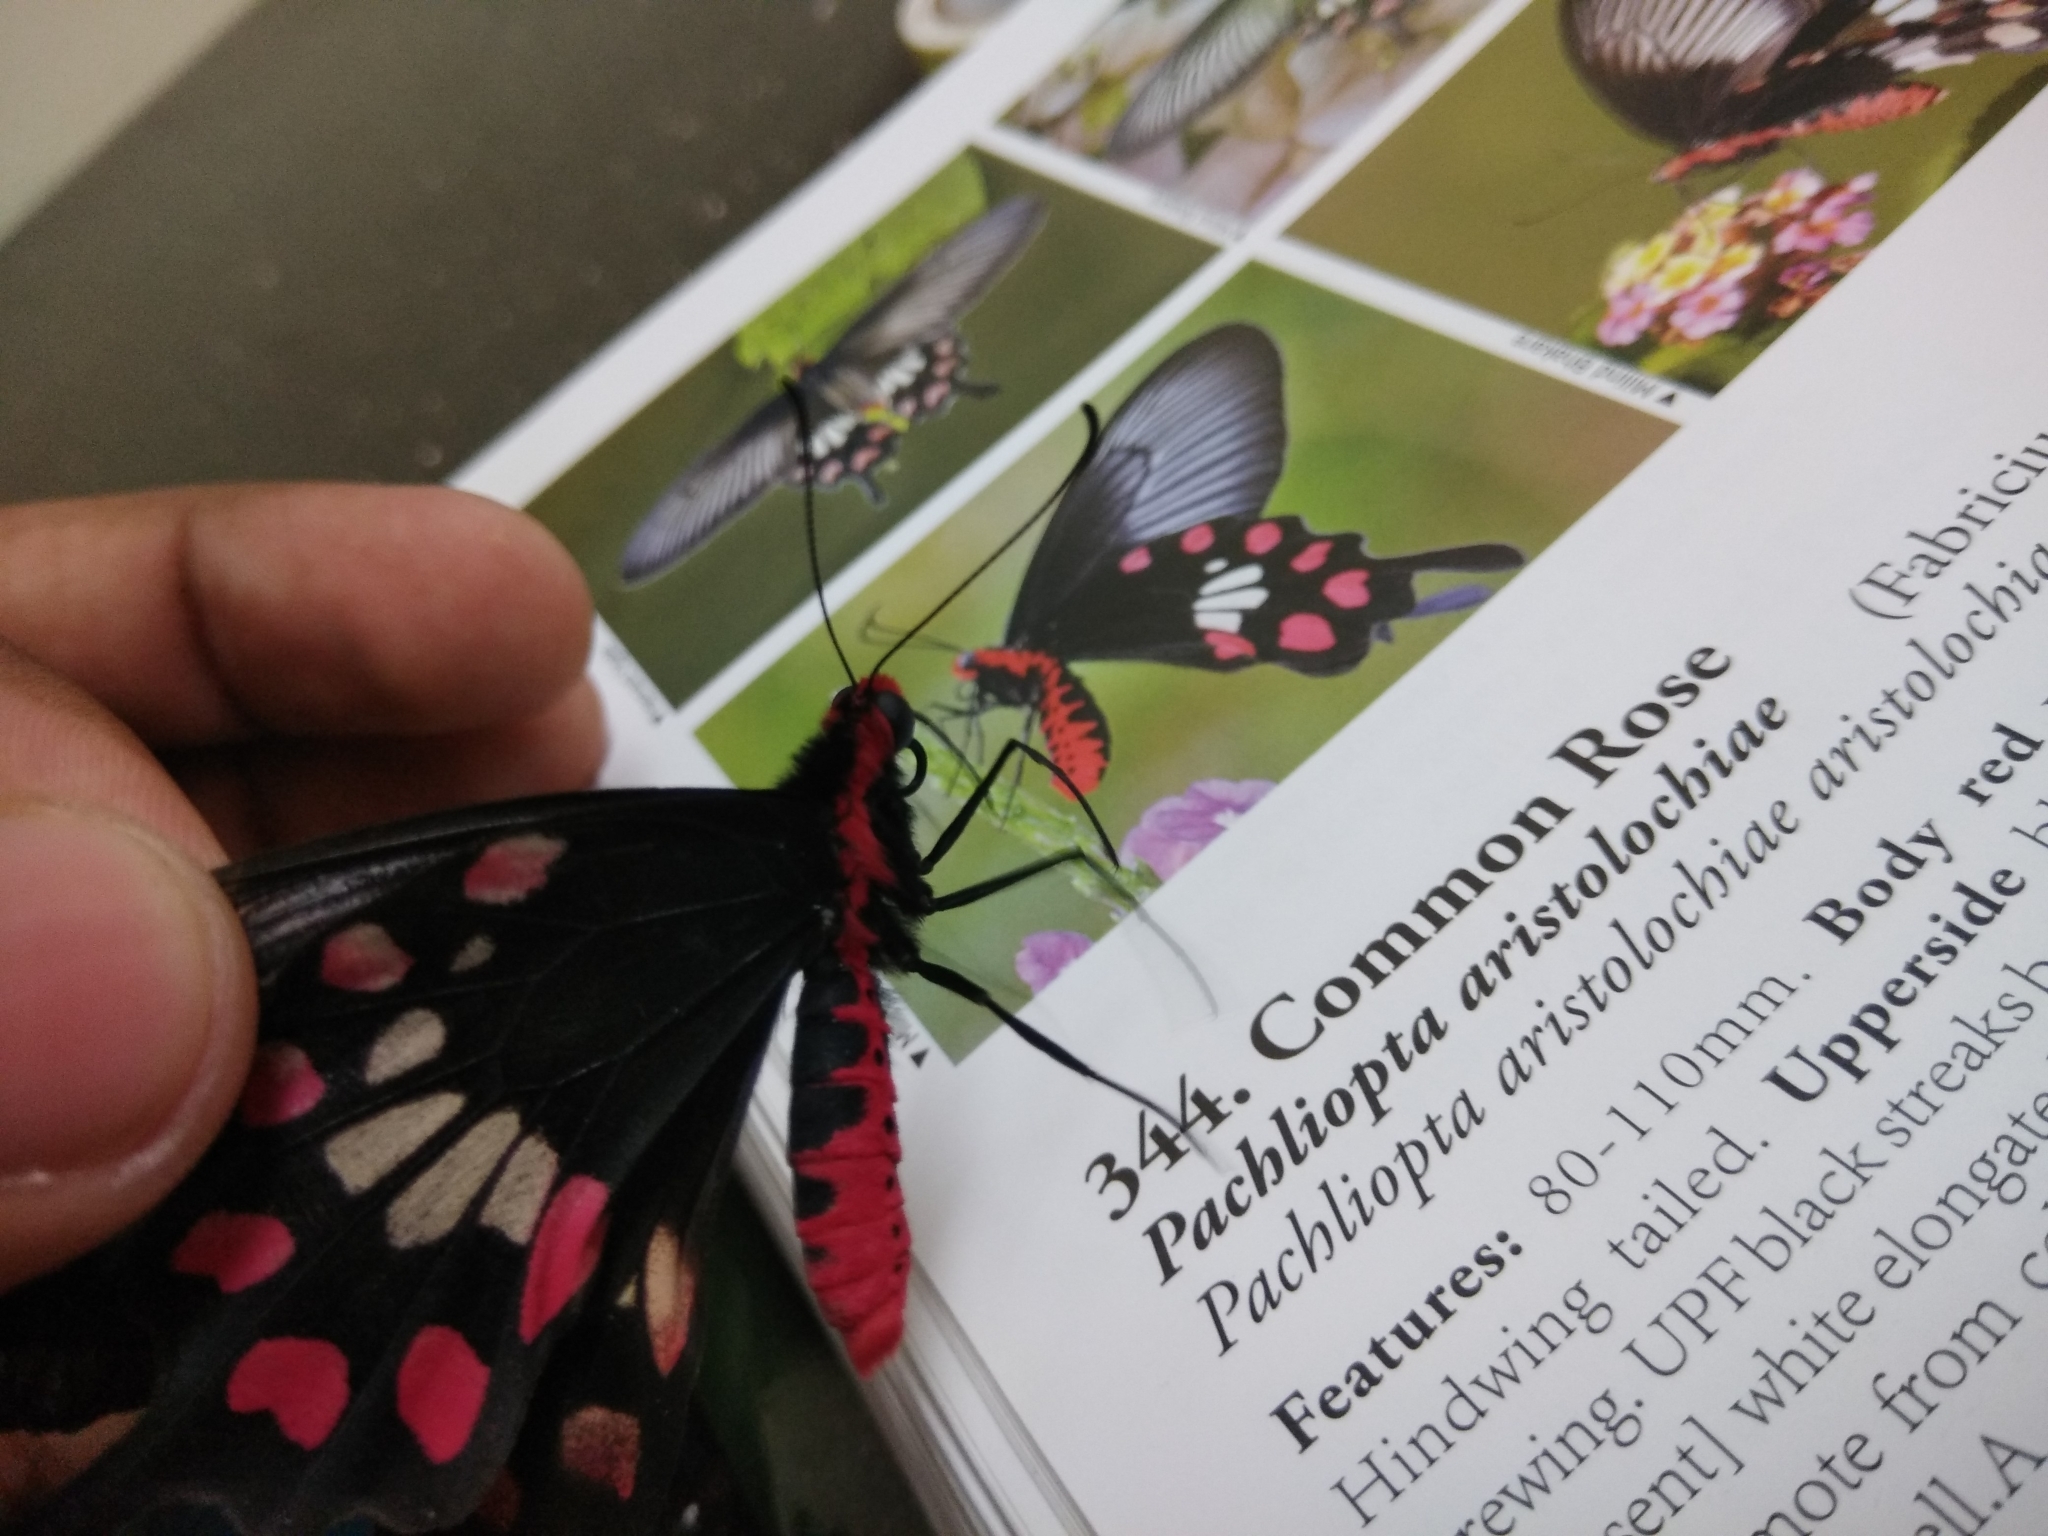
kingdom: Animalia
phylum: Arthropoda
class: Insecta
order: Lepidoptera
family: Papilionidae
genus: Pachliopta
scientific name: Pachliopta aristolochiae
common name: Common rose
